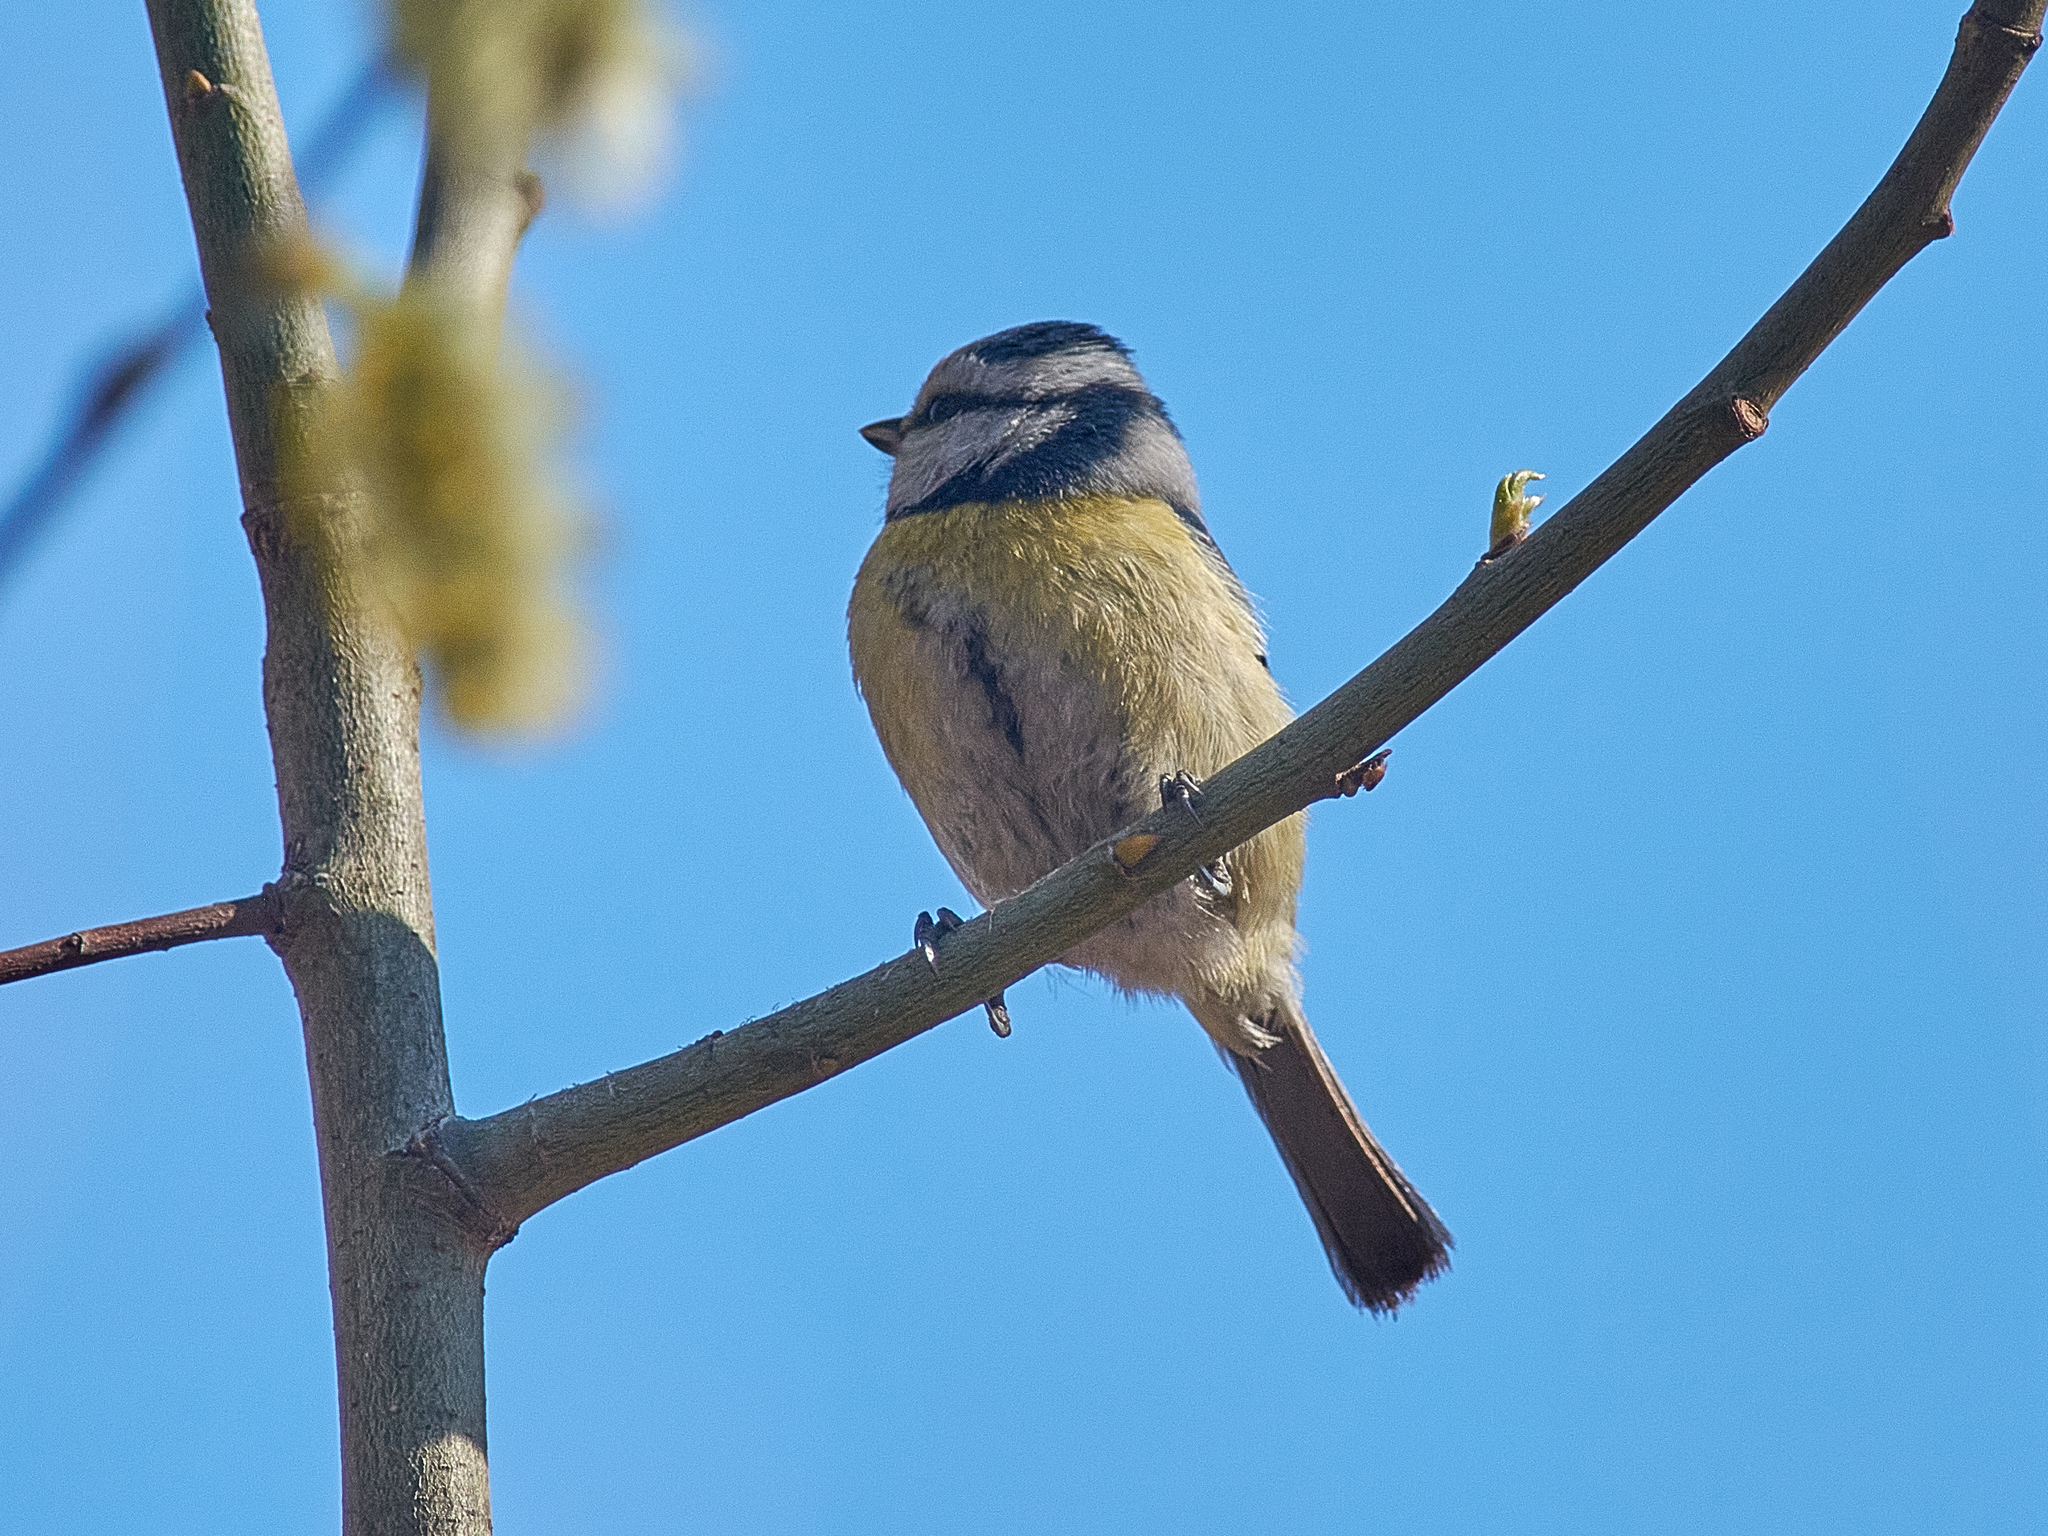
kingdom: Animalia
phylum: Chordata
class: Aves
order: Passeriformes
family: Paridae
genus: Cyanistes
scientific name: Cyanistes caeruleus
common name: Eurasian blue tit
